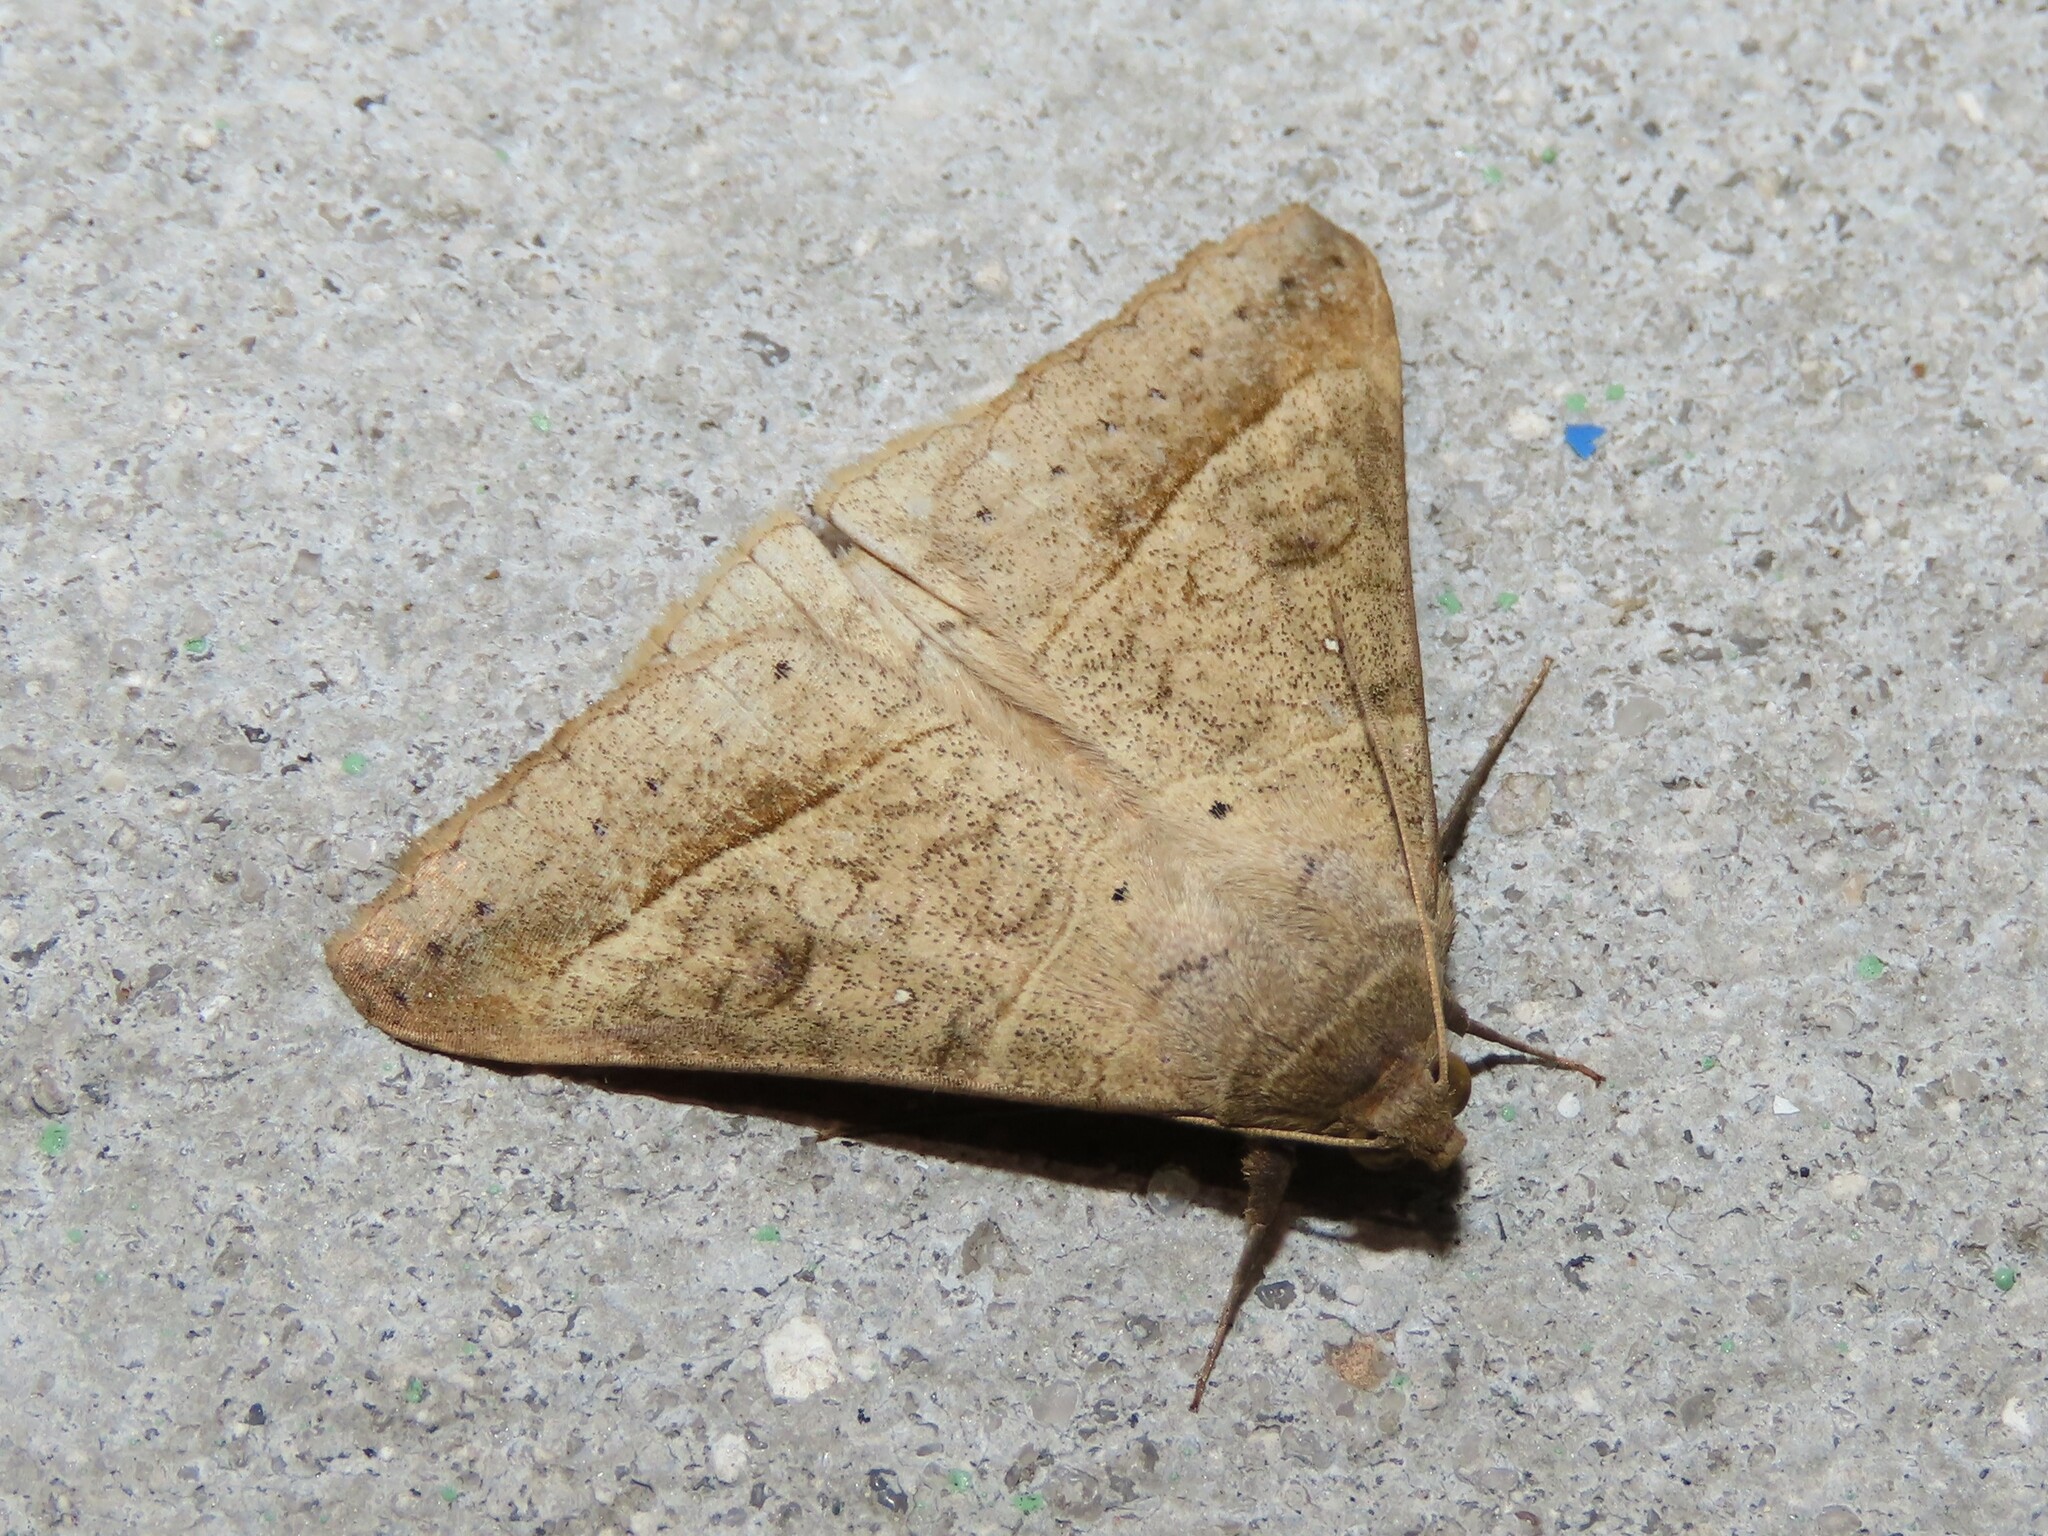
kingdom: Animalia
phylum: Arthropoda
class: Insecta
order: Lepidoptera
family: Erebidae
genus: Mocis
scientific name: Mocis disseverans
